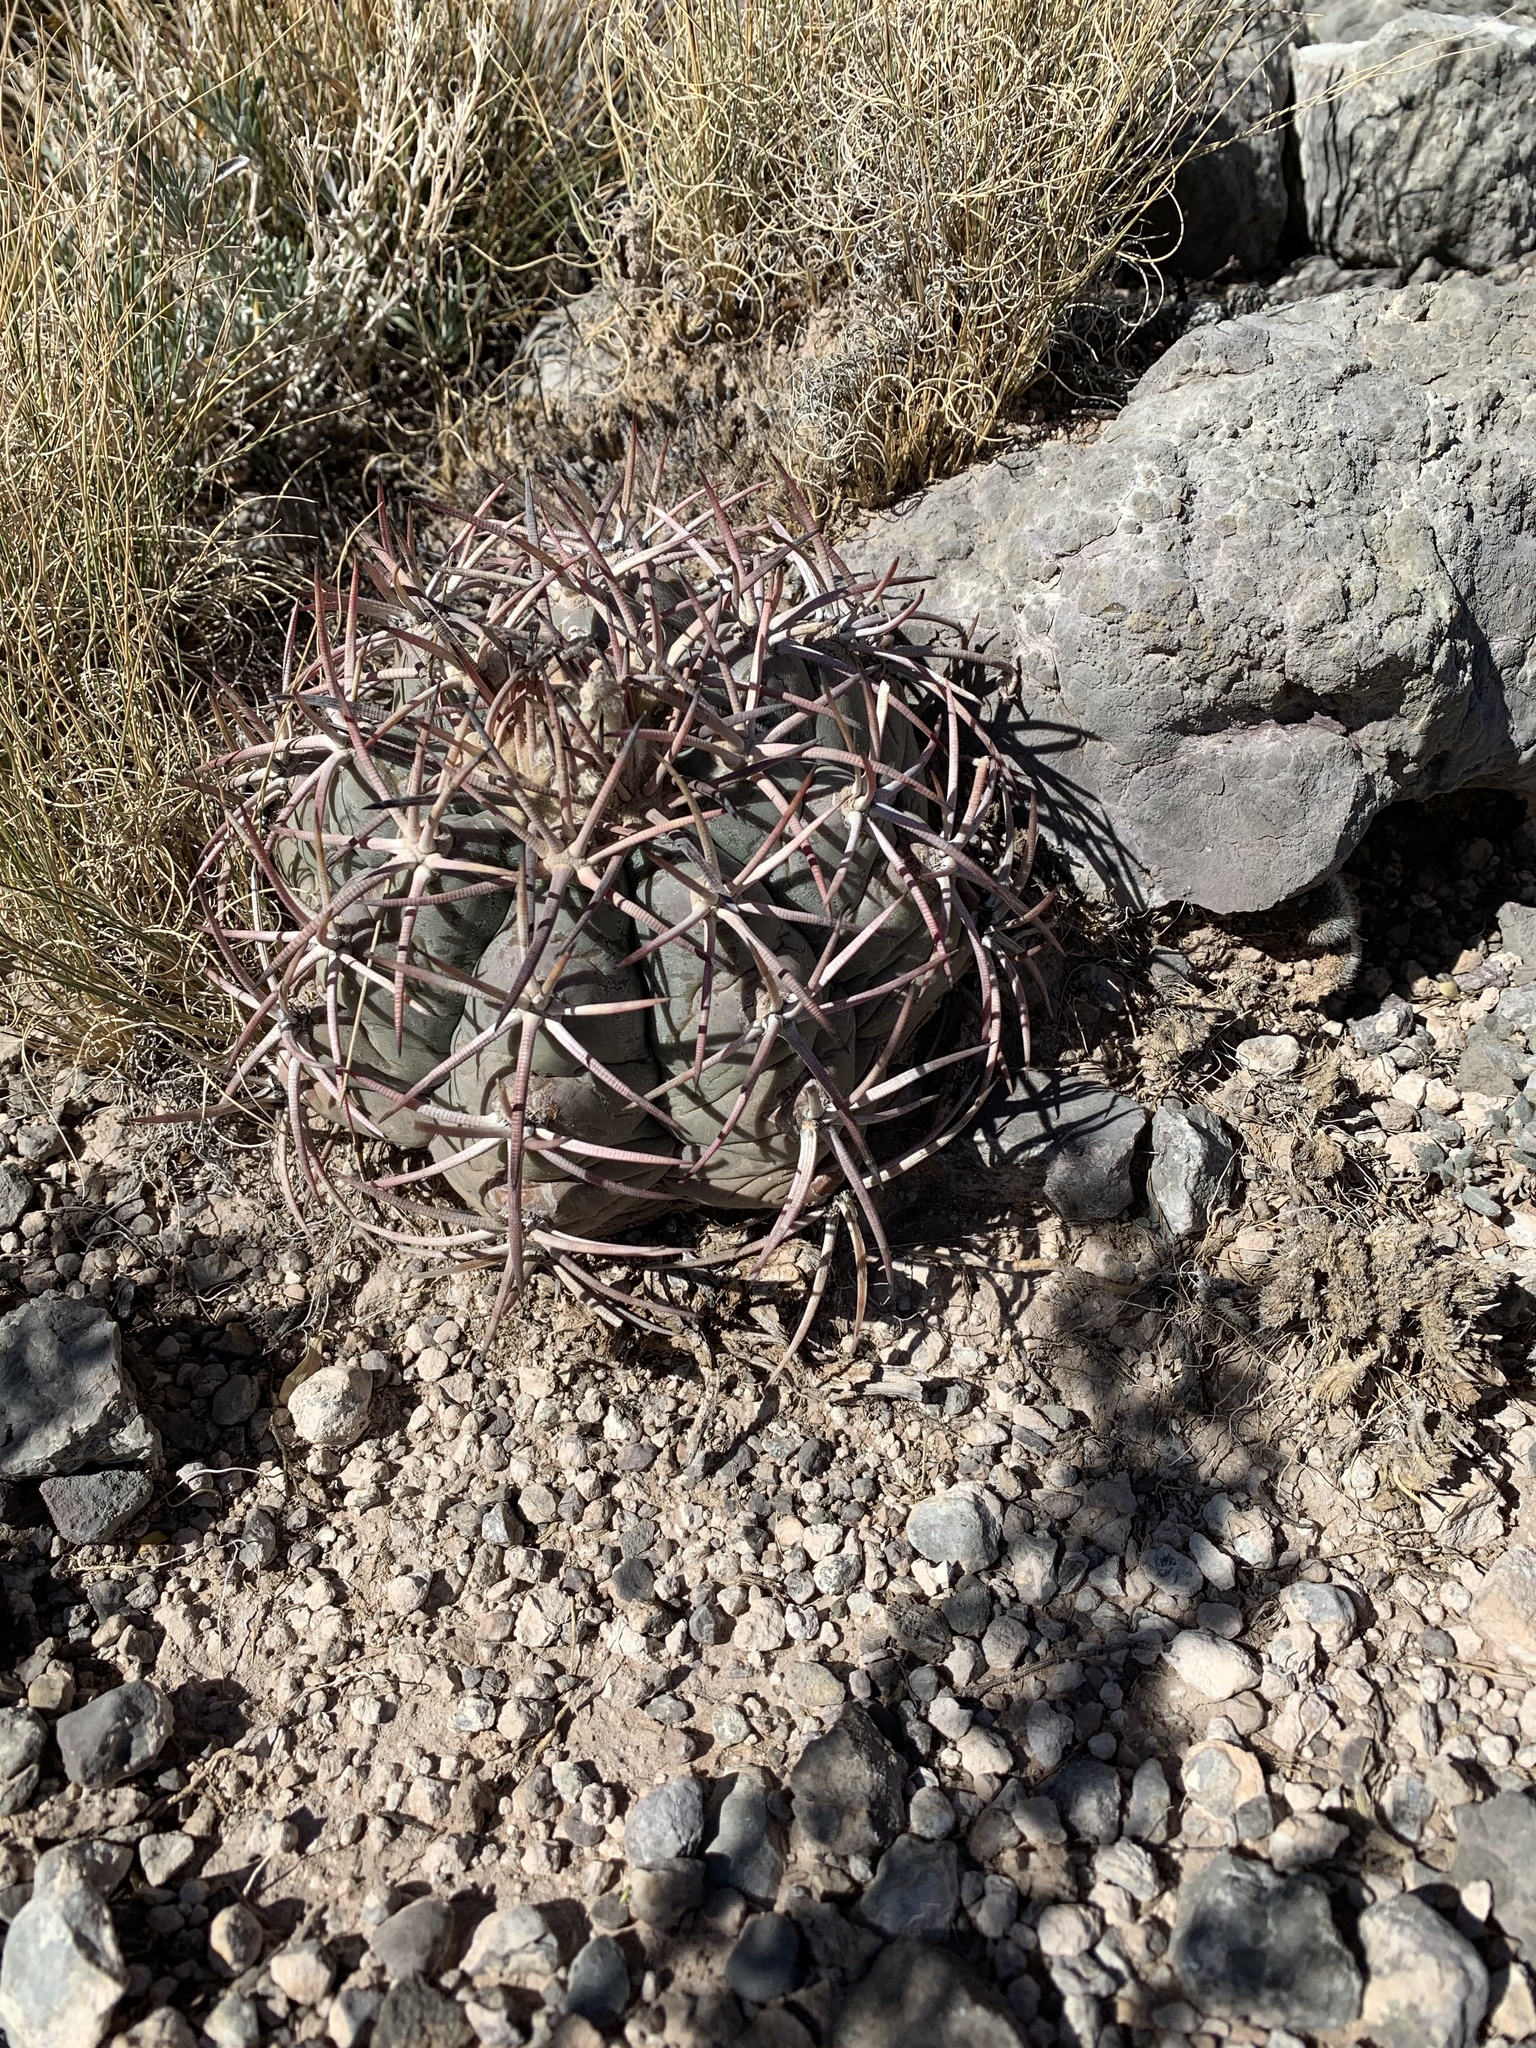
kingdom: Plantae
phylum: Tracheophyta
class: Magnoliopsida
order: Caryophyllales
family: Cactaceae
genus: Echinocactus
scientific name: Echinocactus horizonthalonius
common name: Devilshead
